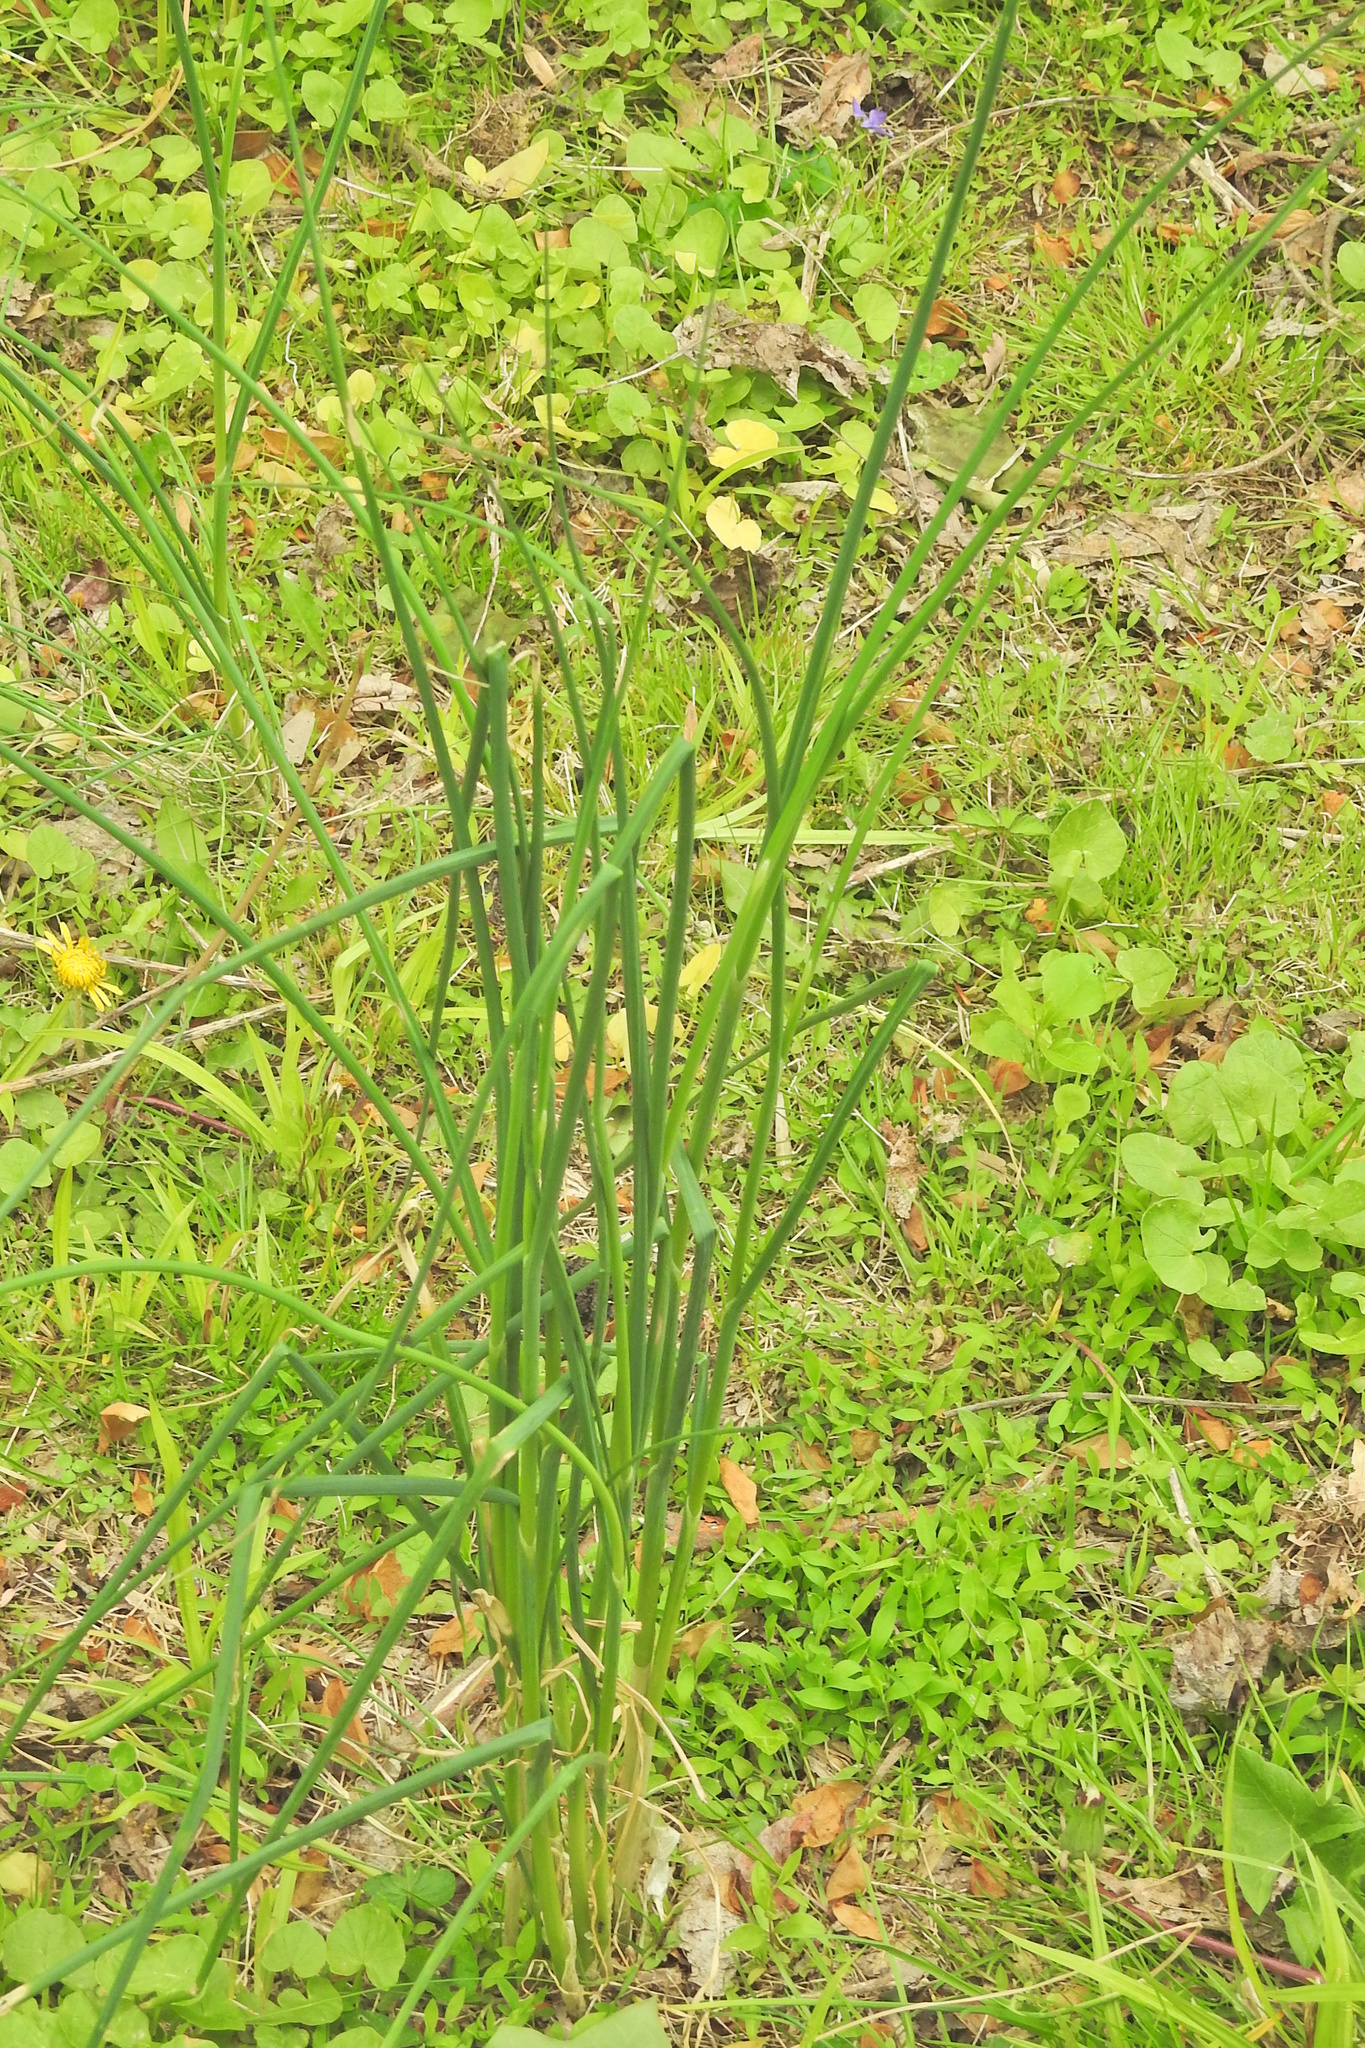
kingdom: Plantae
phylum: Tracheophyta
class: Liliopsida
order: Asparagales
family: Amaryllidaceae
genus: Allium
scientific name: Allium vineale
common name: Crow garlic
